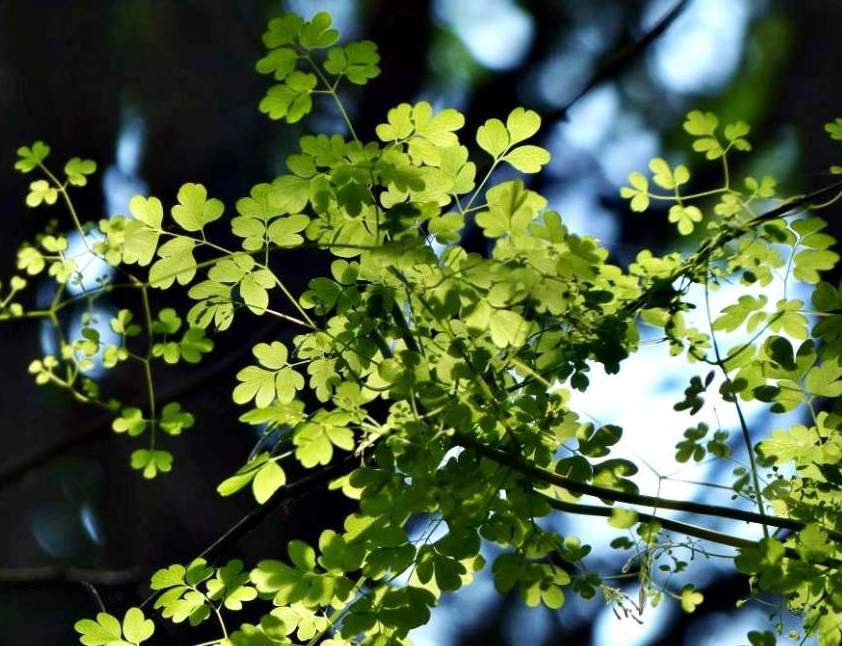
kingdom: Plantae
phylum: Tracheophyta
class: Magnoliopsida
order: Ranunculales
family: Papaveraceae
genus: Adlumia
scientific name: Adlumia fungosa
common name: Mountain-fringe
